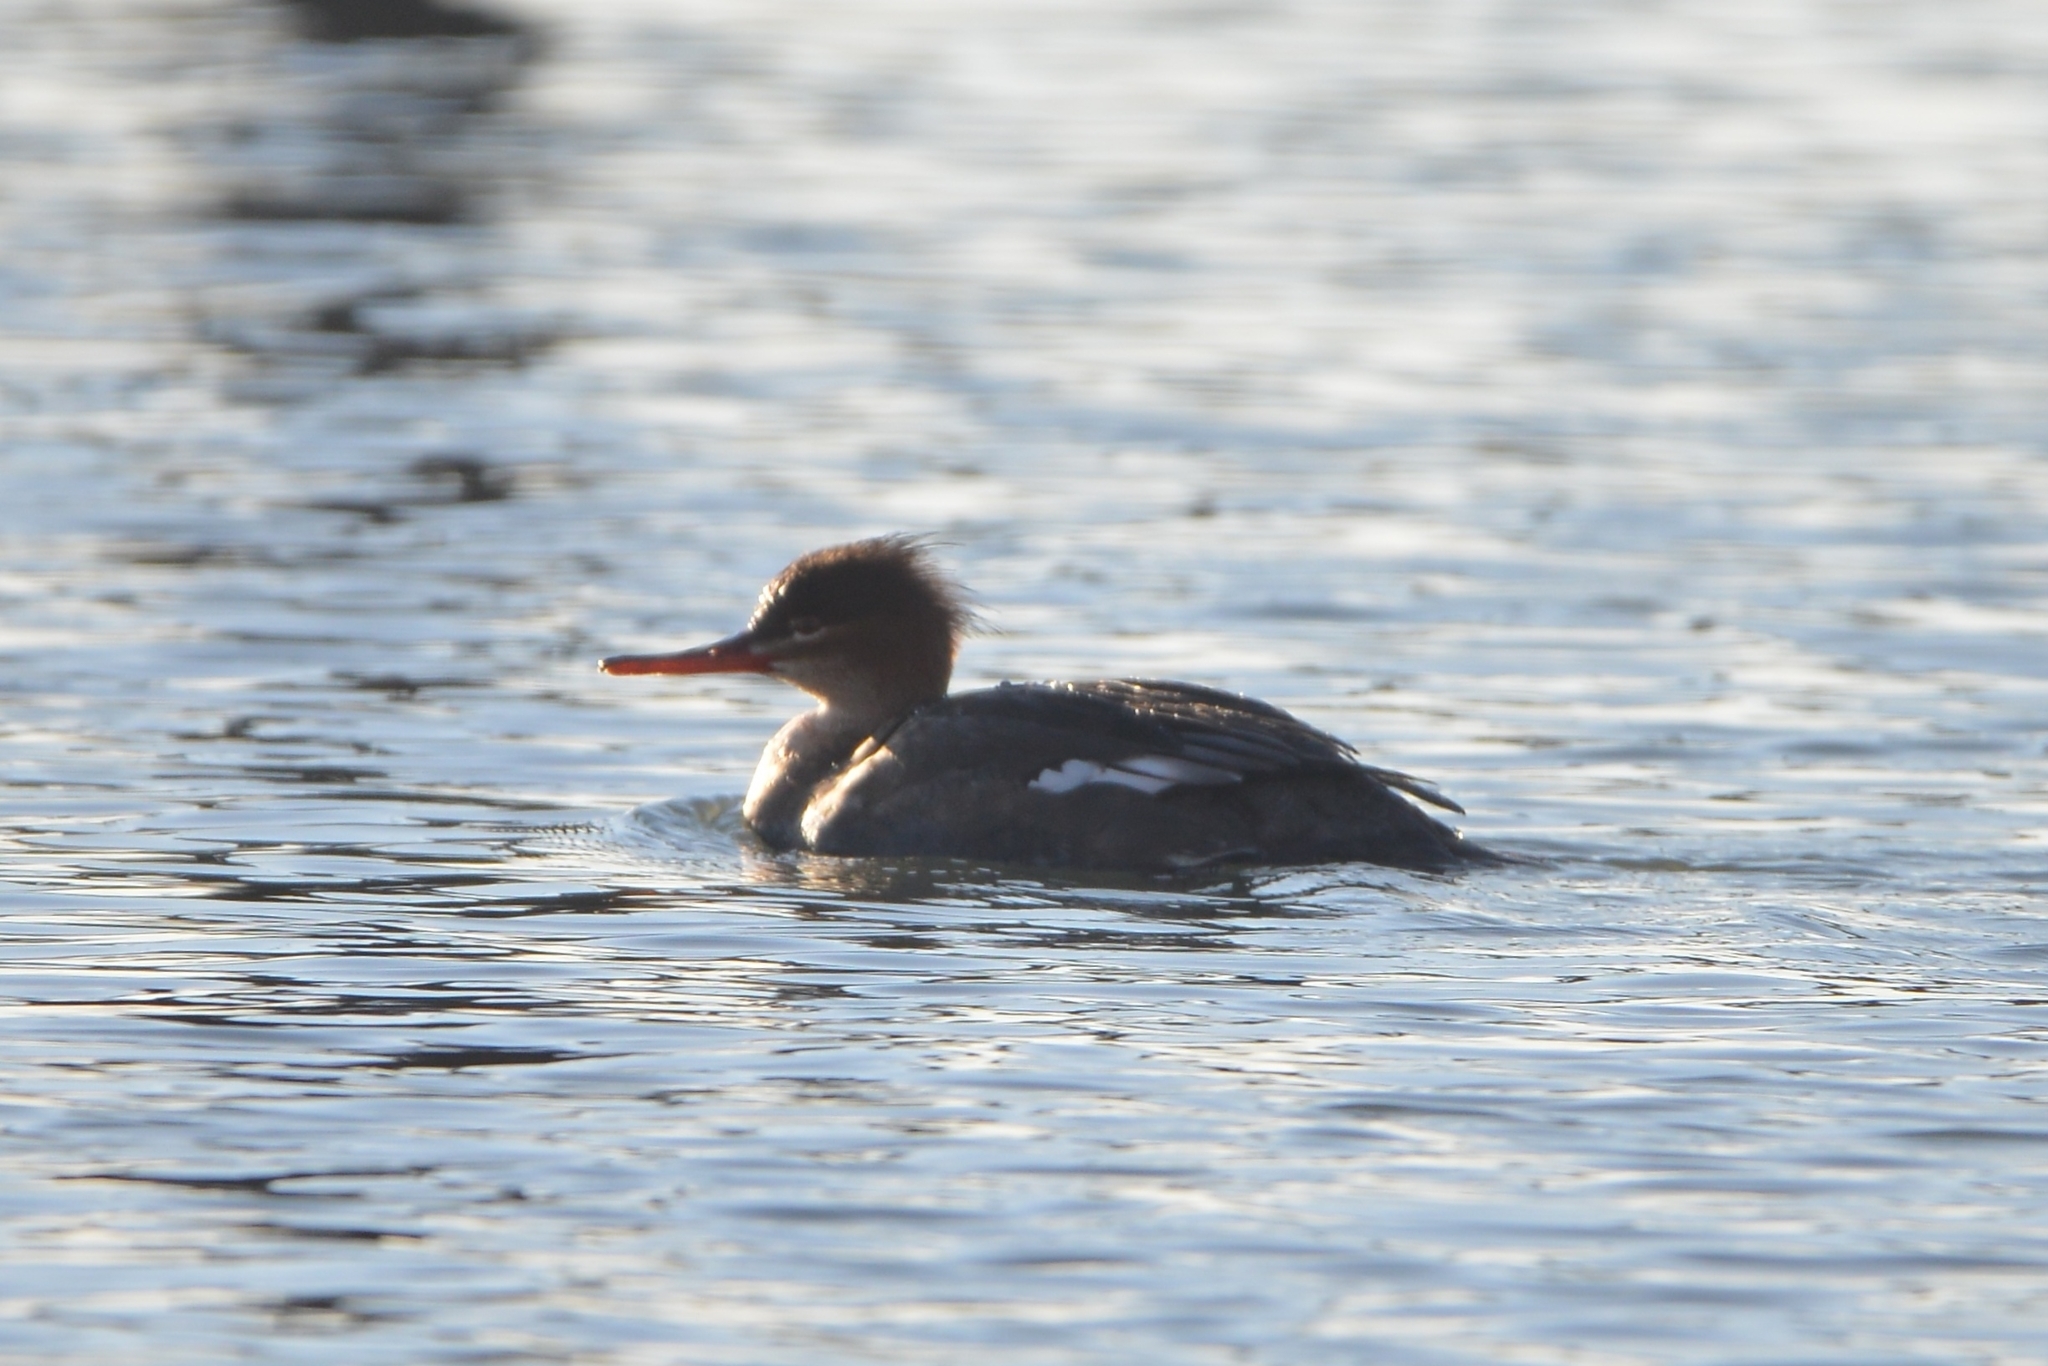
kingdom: Animalia
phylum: Chordata
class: Aves
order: Anseriformes
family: Anatidae
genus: Mergus
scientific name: Mergus serrator
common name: Red-breasted merganser
